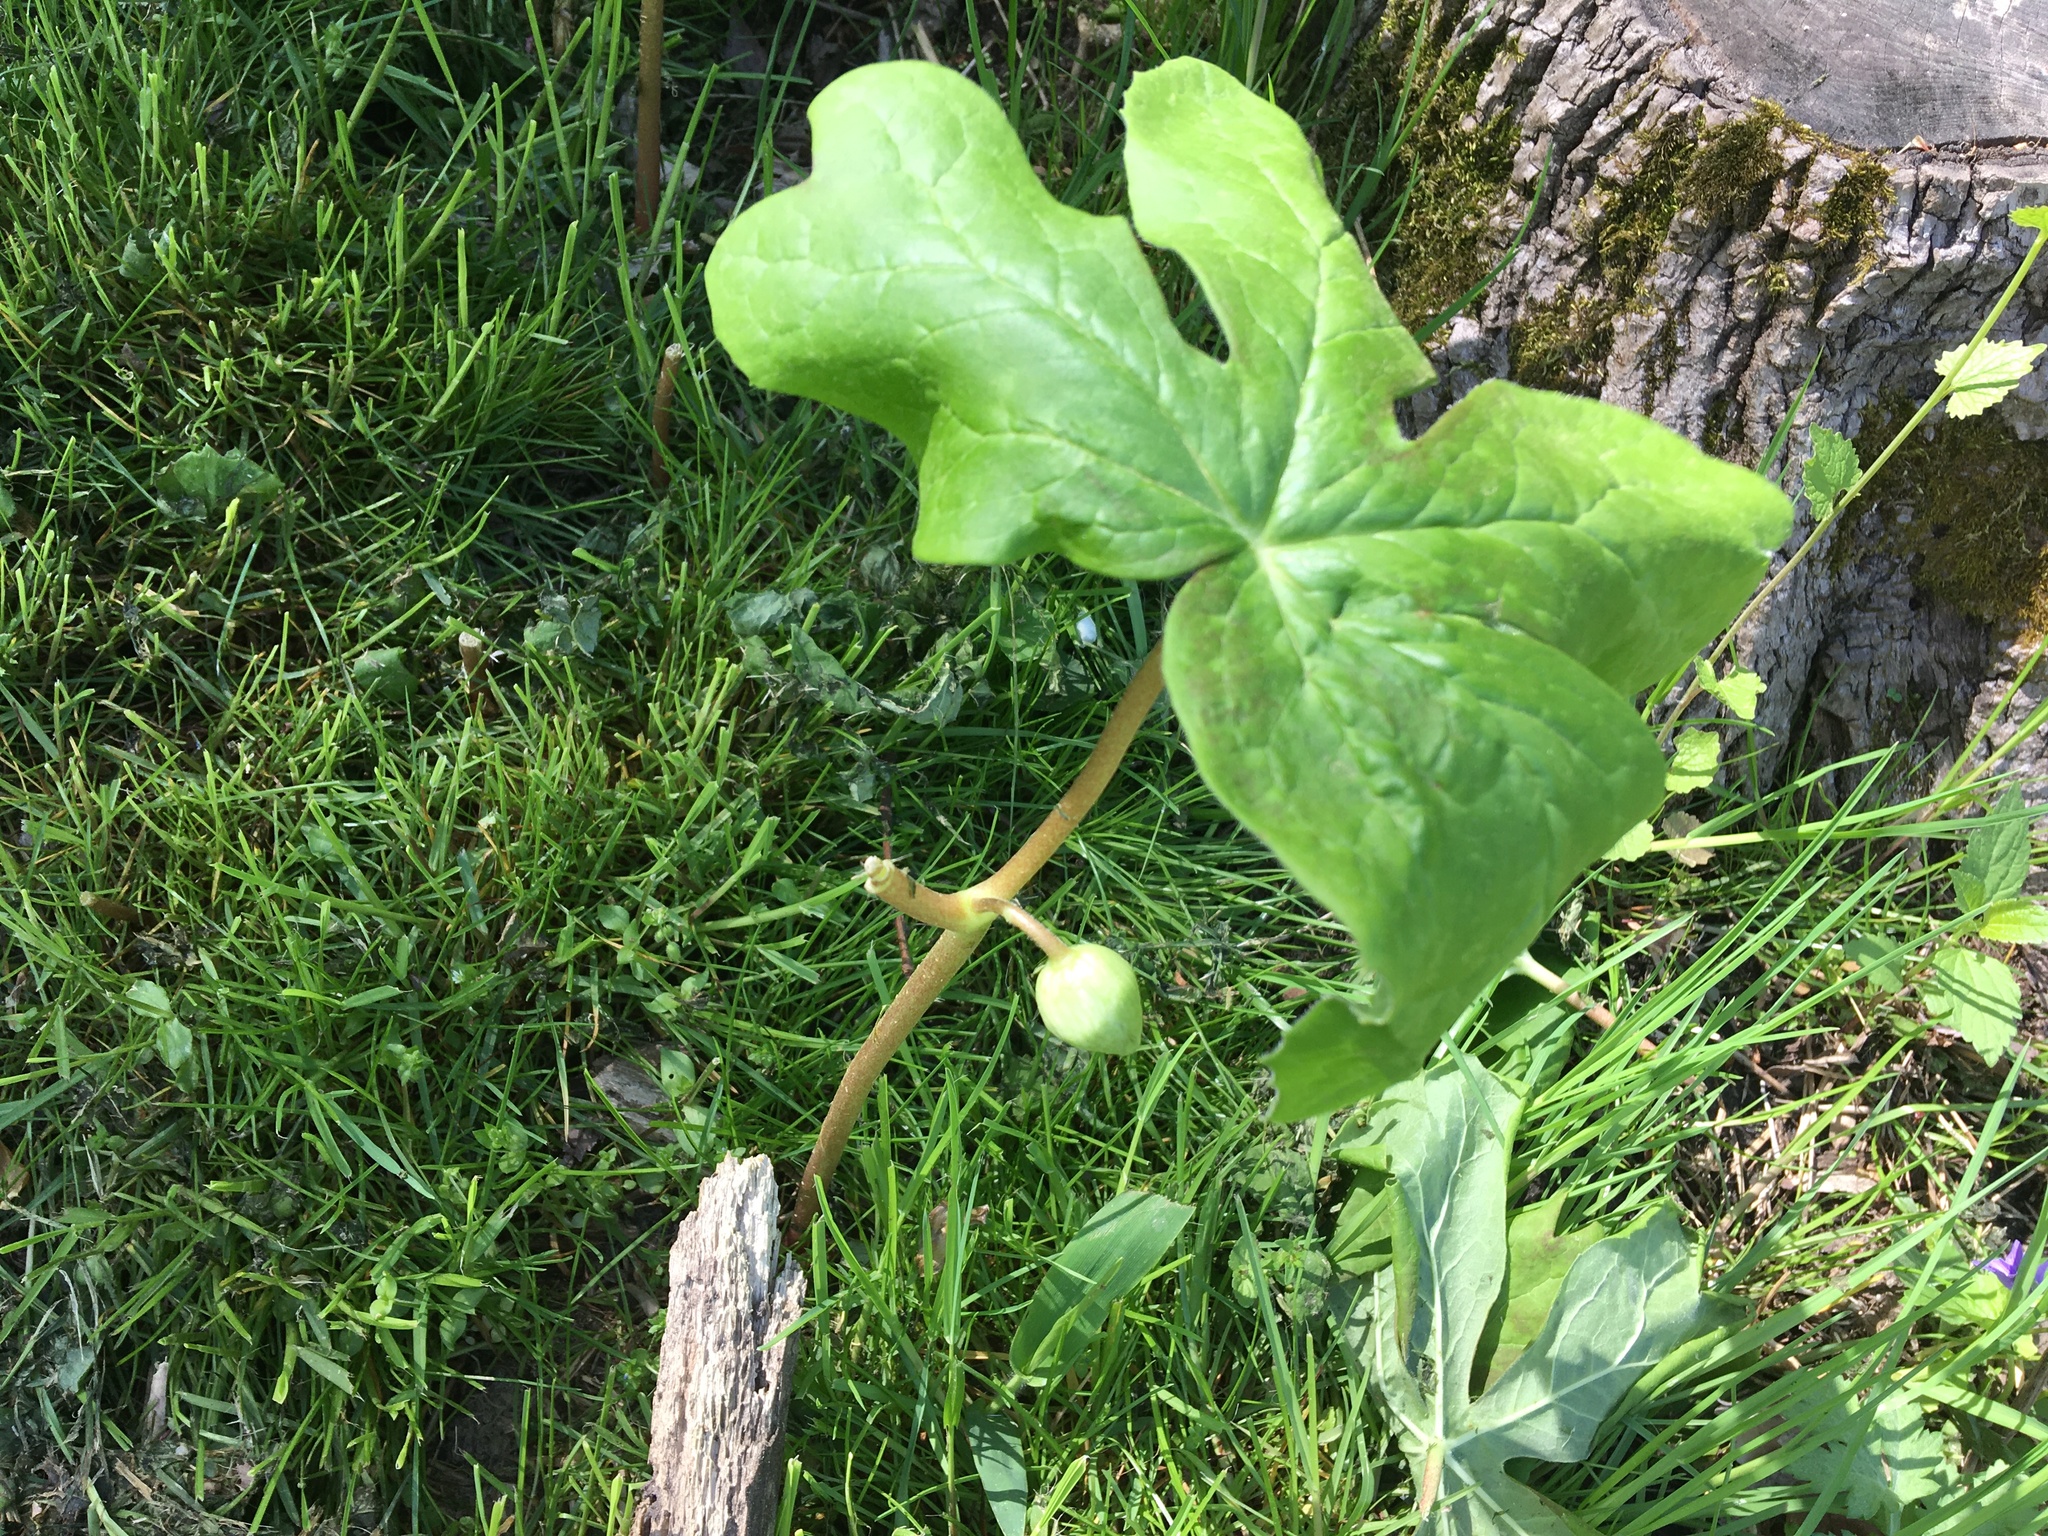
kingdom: Plantae
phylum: Tracheophyta
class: Magnoliopsida
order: Ranunculales
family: Berberidaceae
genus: Podophyllum
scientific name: Podophyllum peltatum
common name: Wild mandrake
